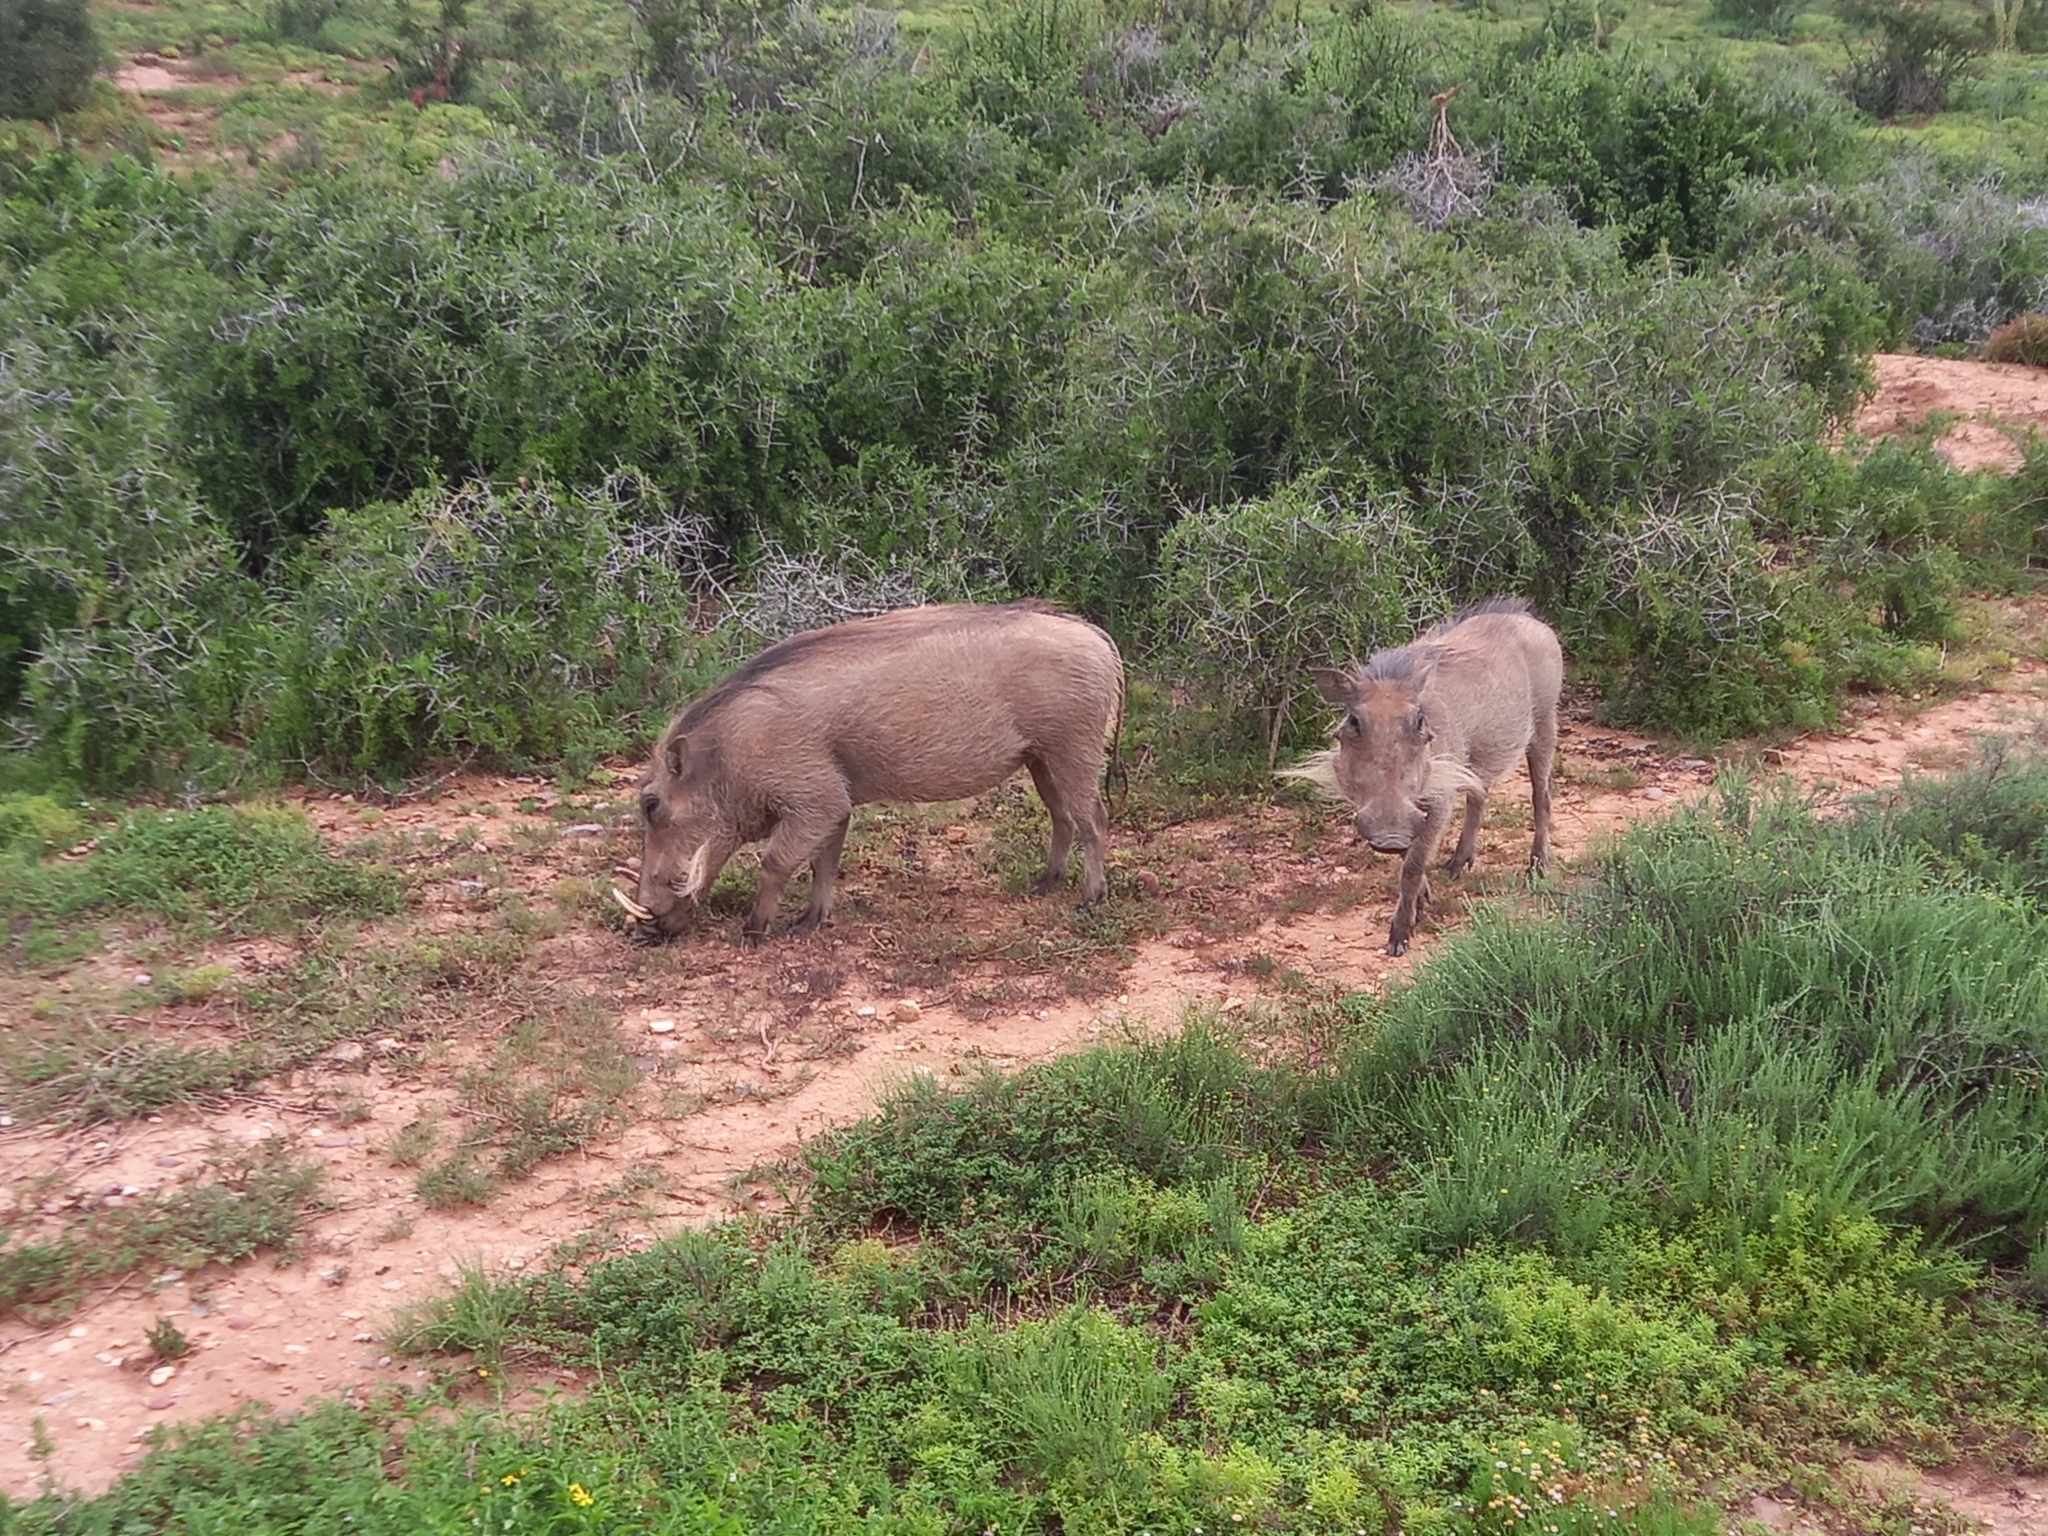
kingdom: Animalia
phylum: Chordata
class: Mammalia
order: Artiodactyla
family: Suidae
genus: Phacochoerus
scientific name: Phacochoerus africanus
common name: Common warthog
